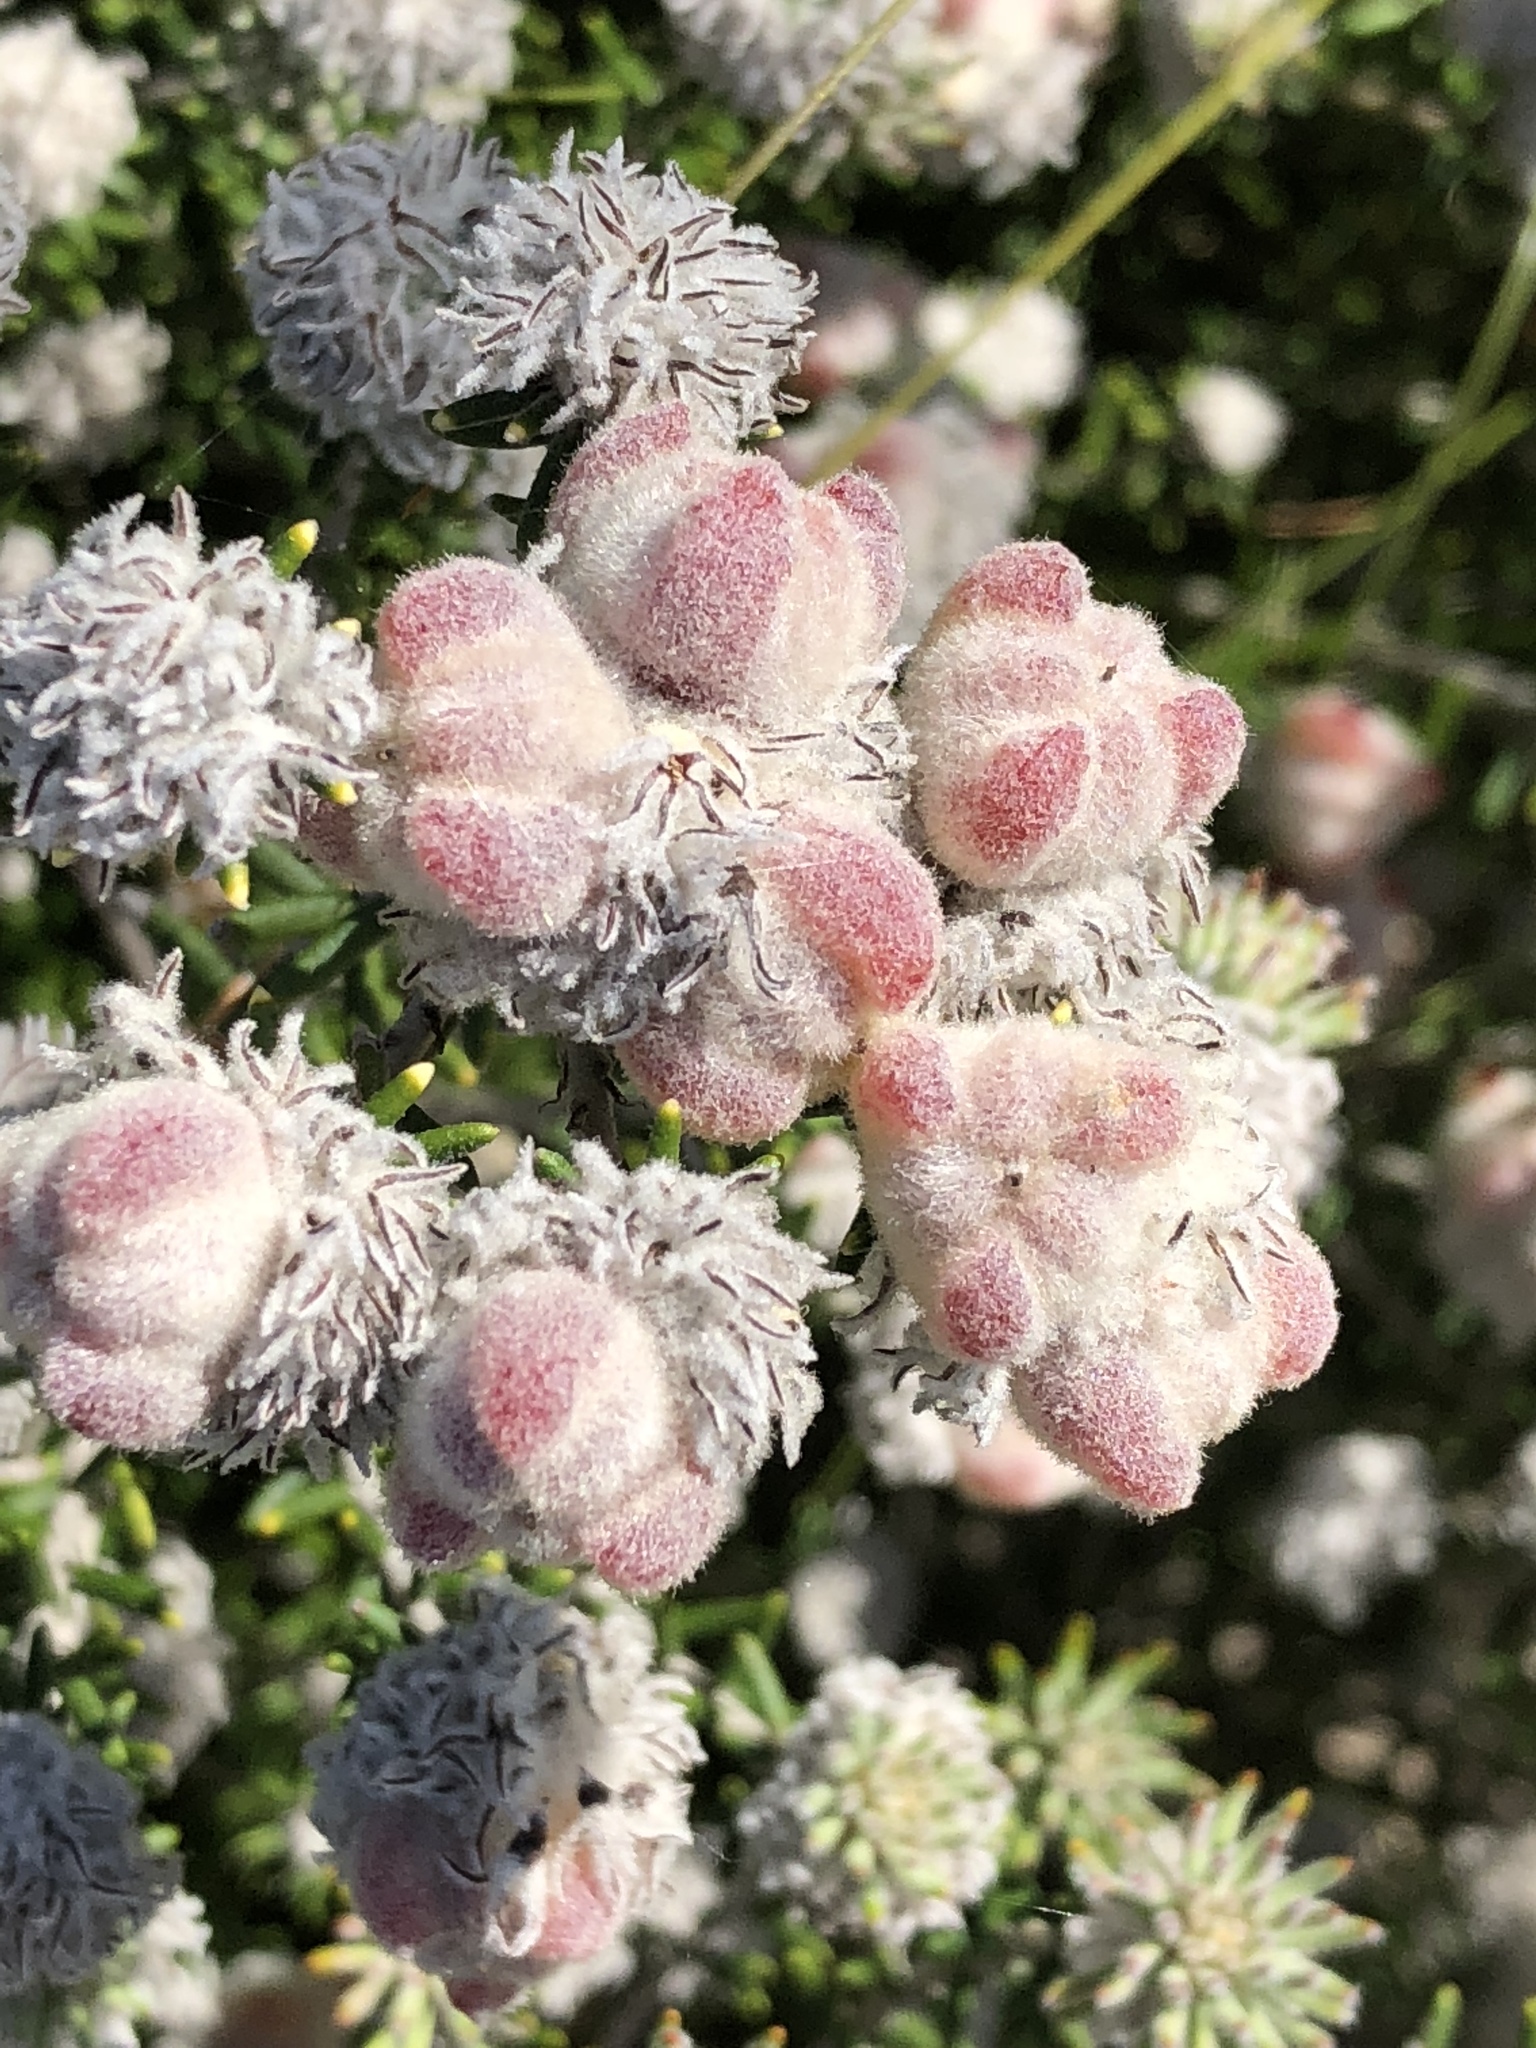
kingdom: Plantae
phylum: Tracheophyta
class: Magnoliopsida
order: Rosales
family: Rhamnaceae
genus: Trichocephalus
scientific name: Trichocephalus stipularis
